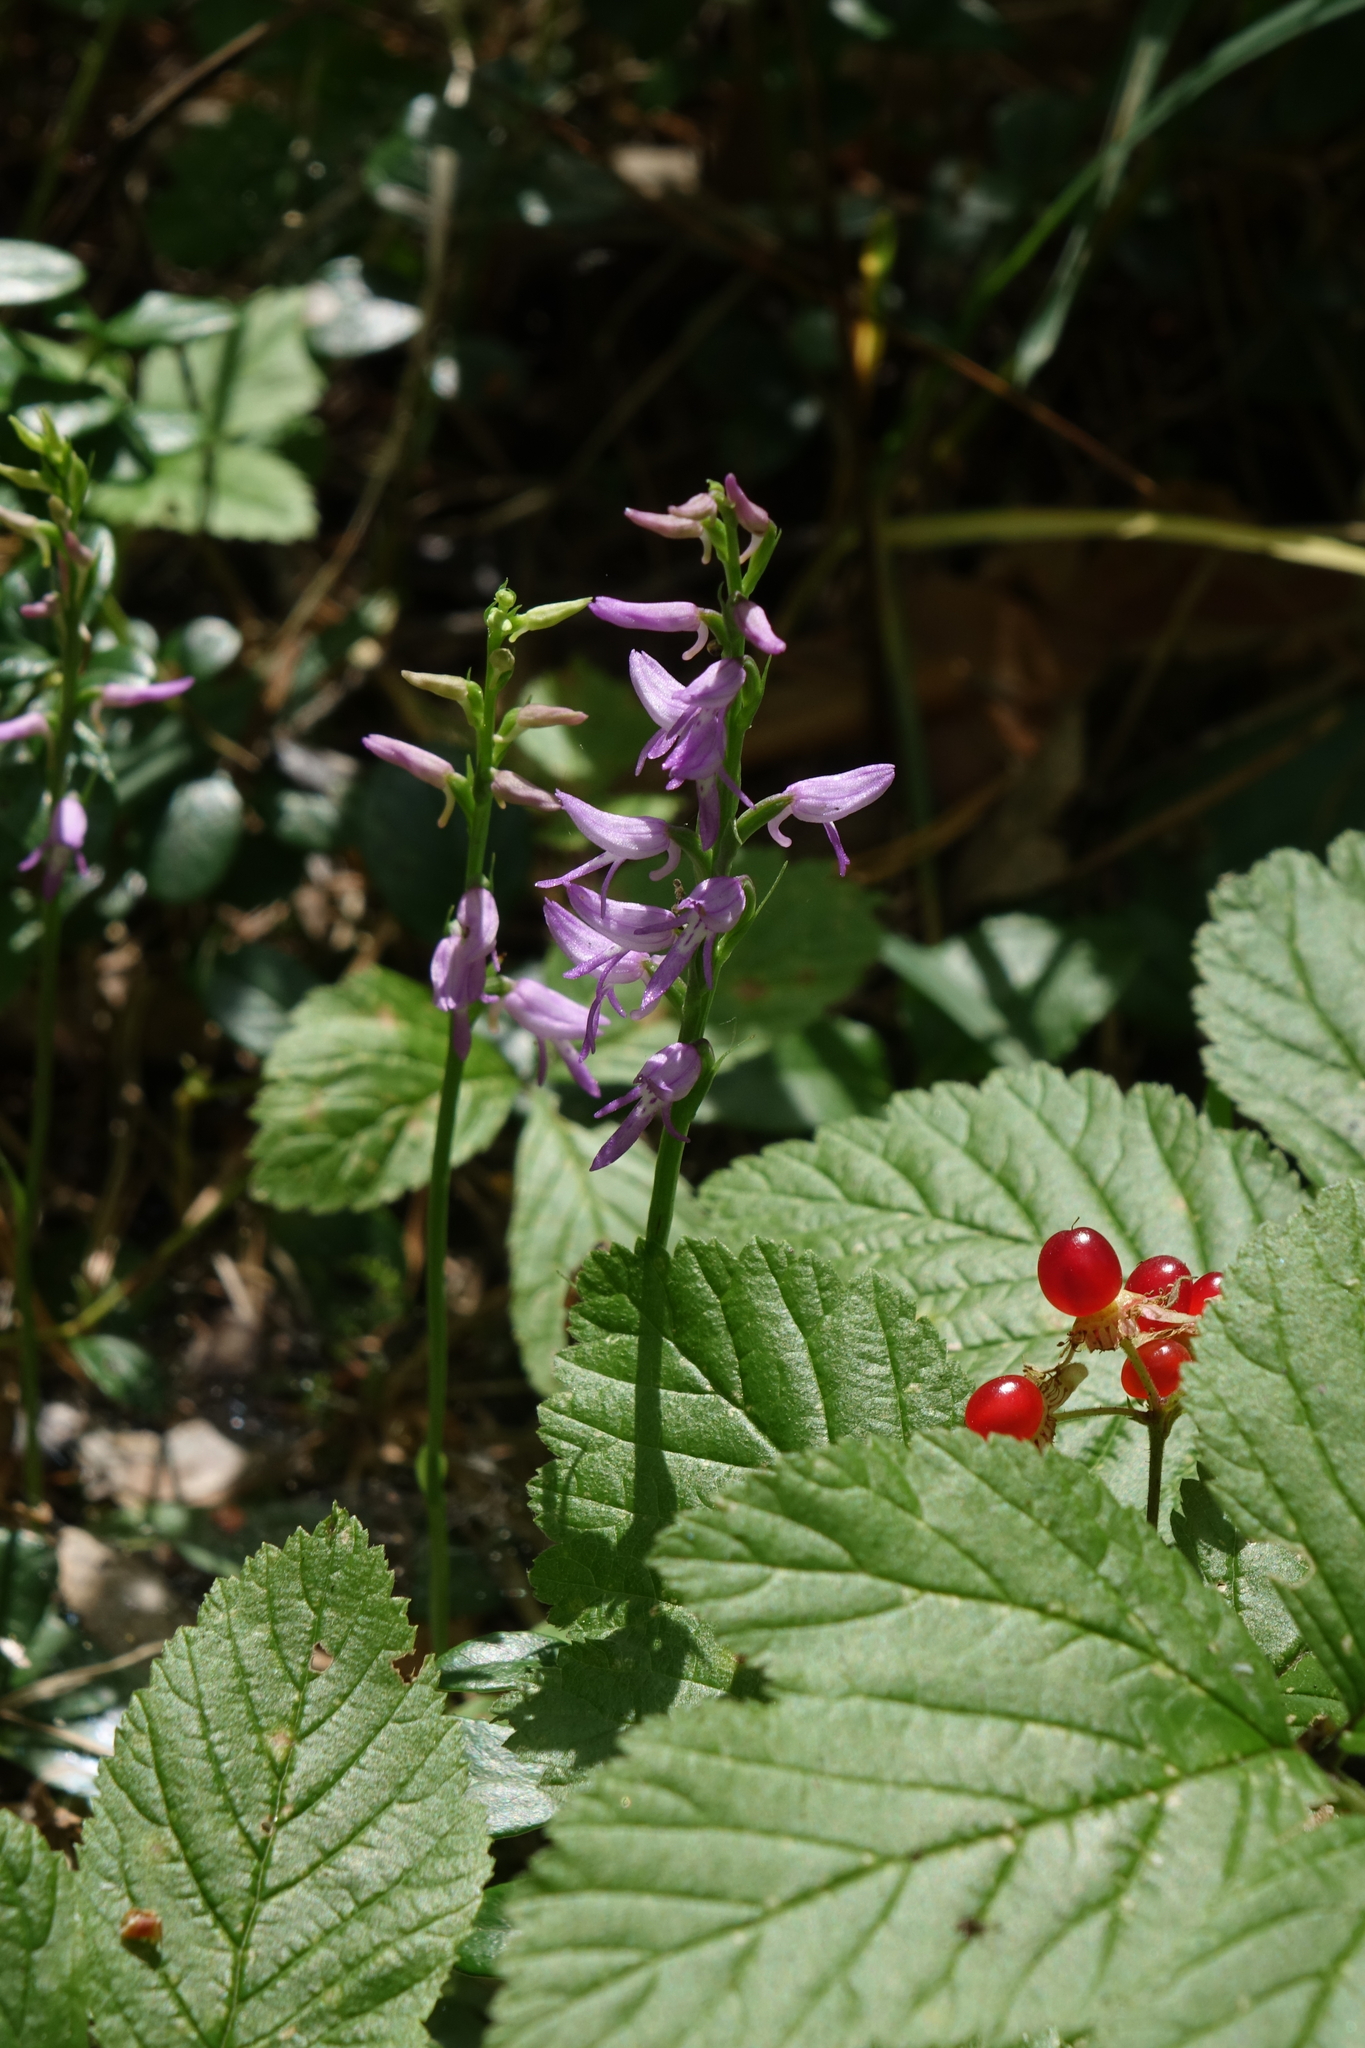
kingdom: Plantae
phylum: Tracheophyta
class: Liliopsida
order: Asparagales
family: Orchidaceae
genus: Hemipilia
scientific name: Hemipilia cucullata
